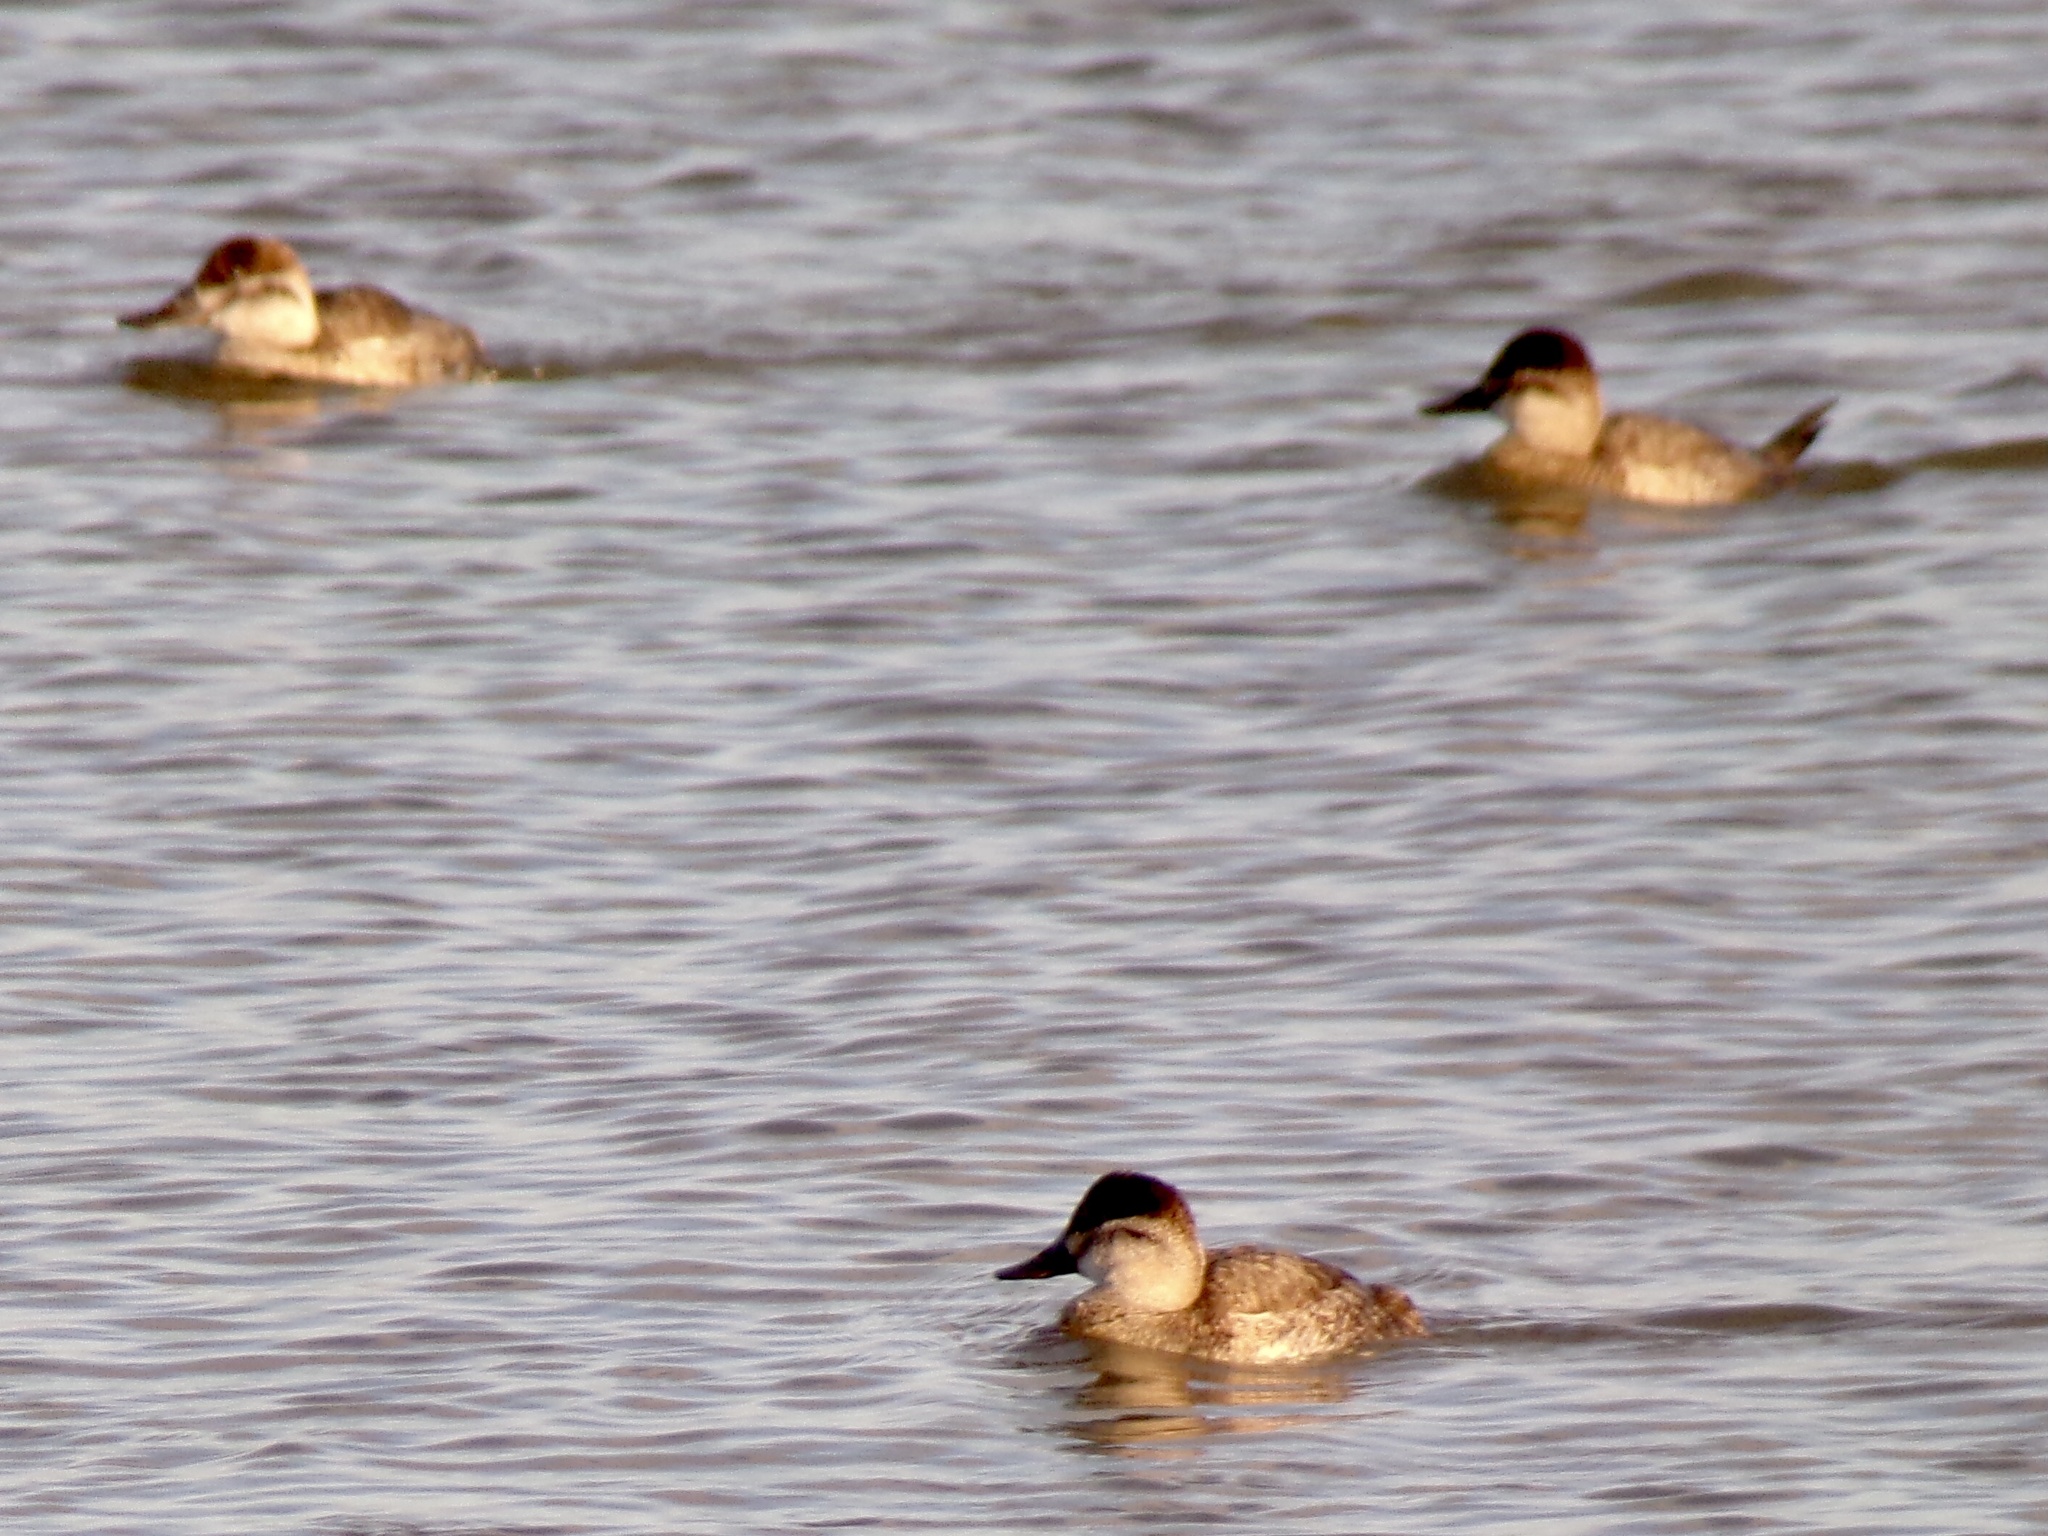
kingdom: Animalia
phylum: Chordata
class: Aves
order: Anseriformes
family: Anatidae
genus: Oxyura
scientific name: Oxyura jamaicensis
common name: Ruddy duck
